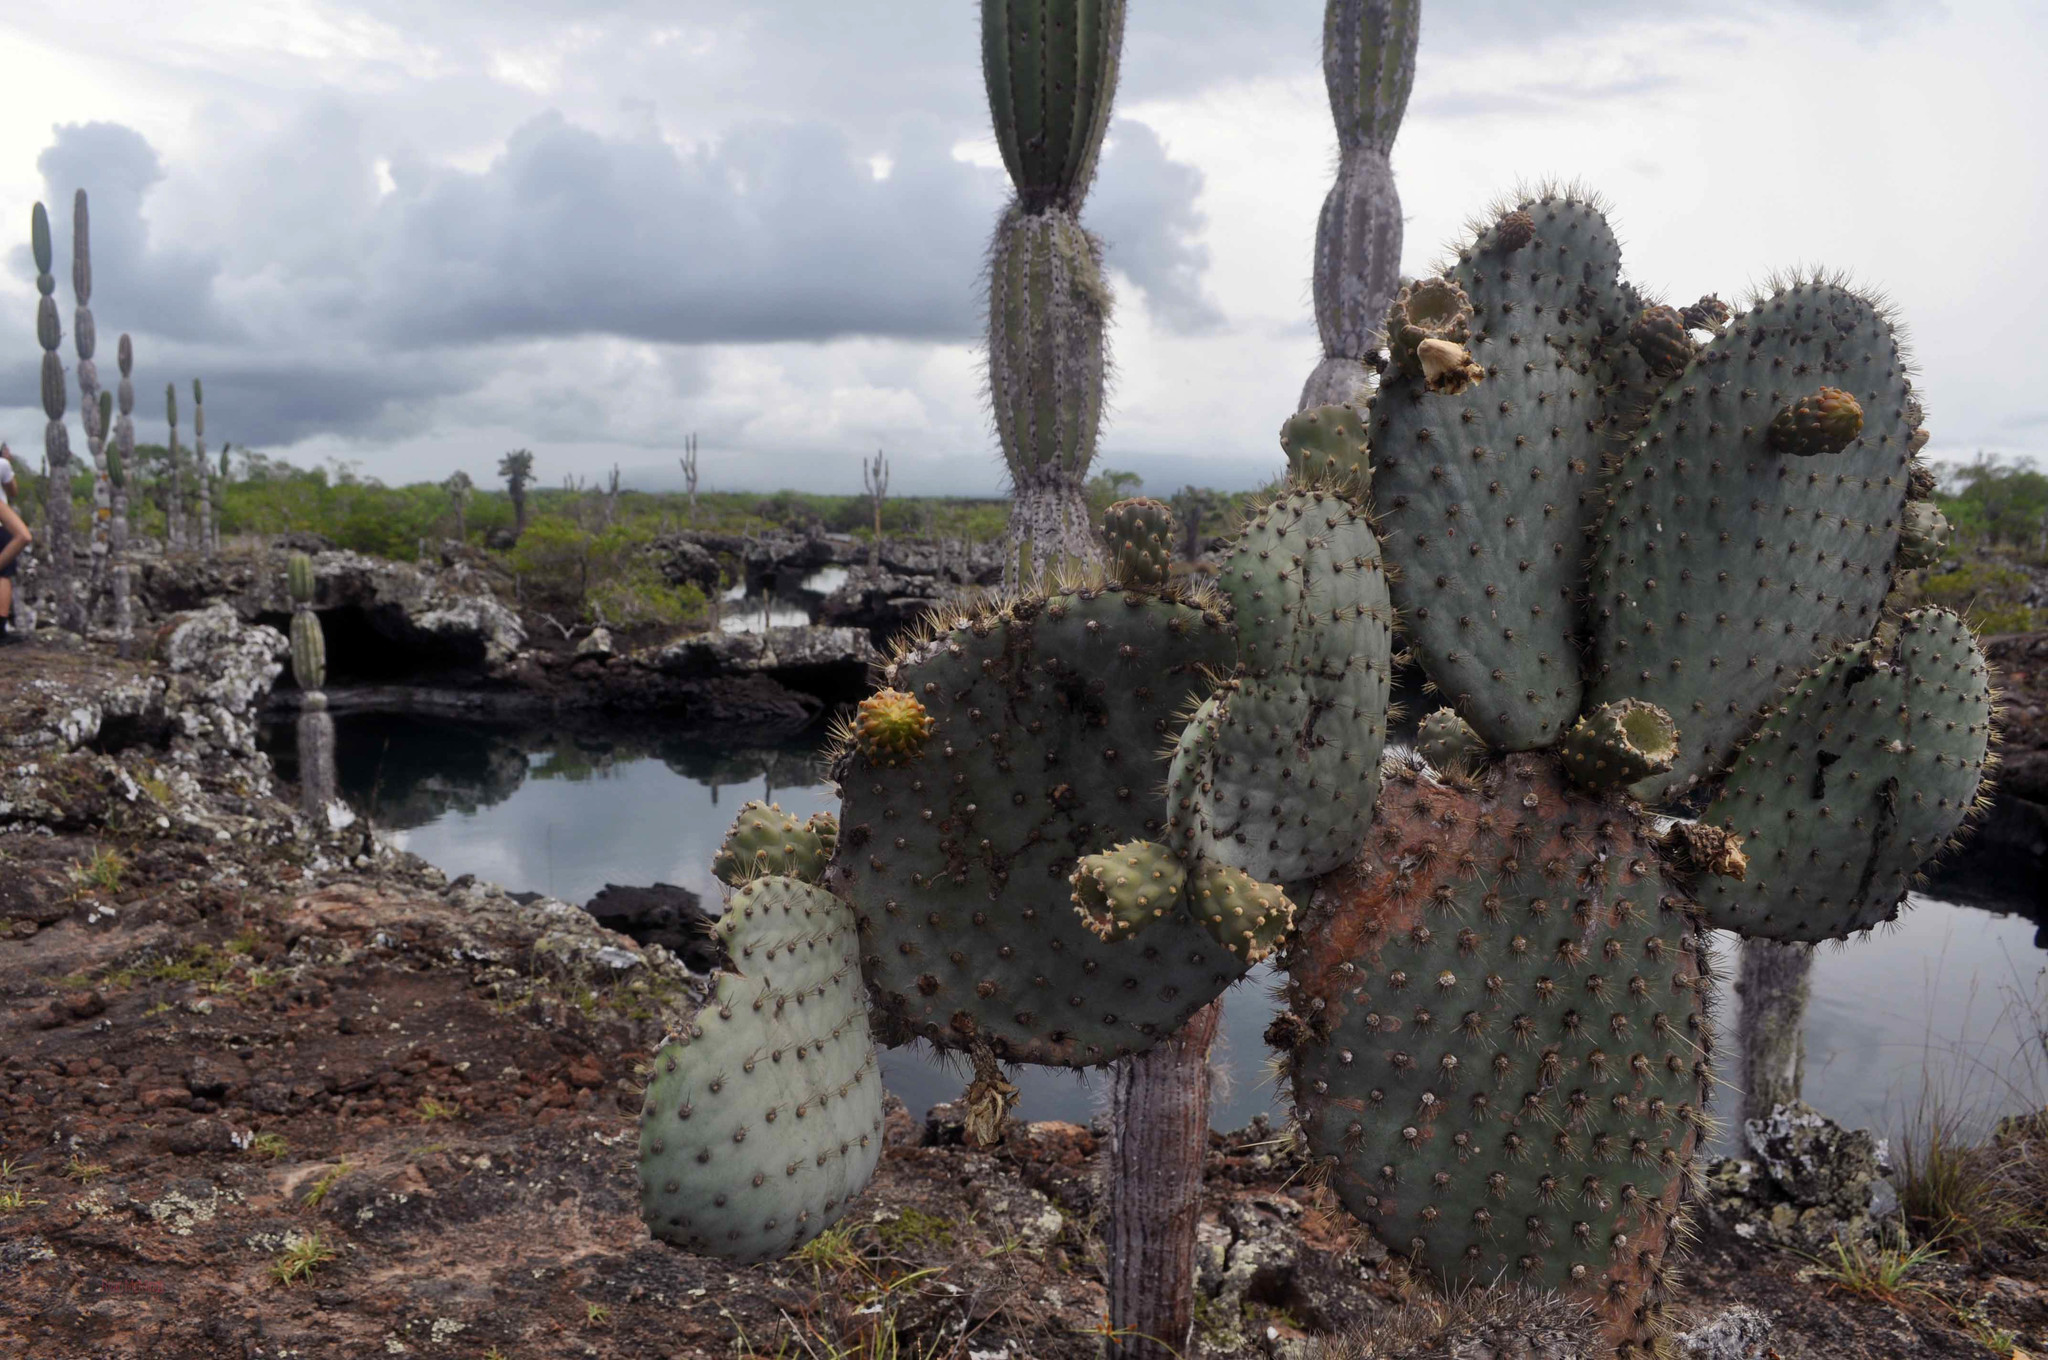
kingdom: Plantae
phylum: Tracheophyta
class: Magnoliopsida
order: Caryophyllales
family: Cactaceae
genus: Opuntia
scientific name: Opuntia galapageia
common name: Galápagos prickly pear
